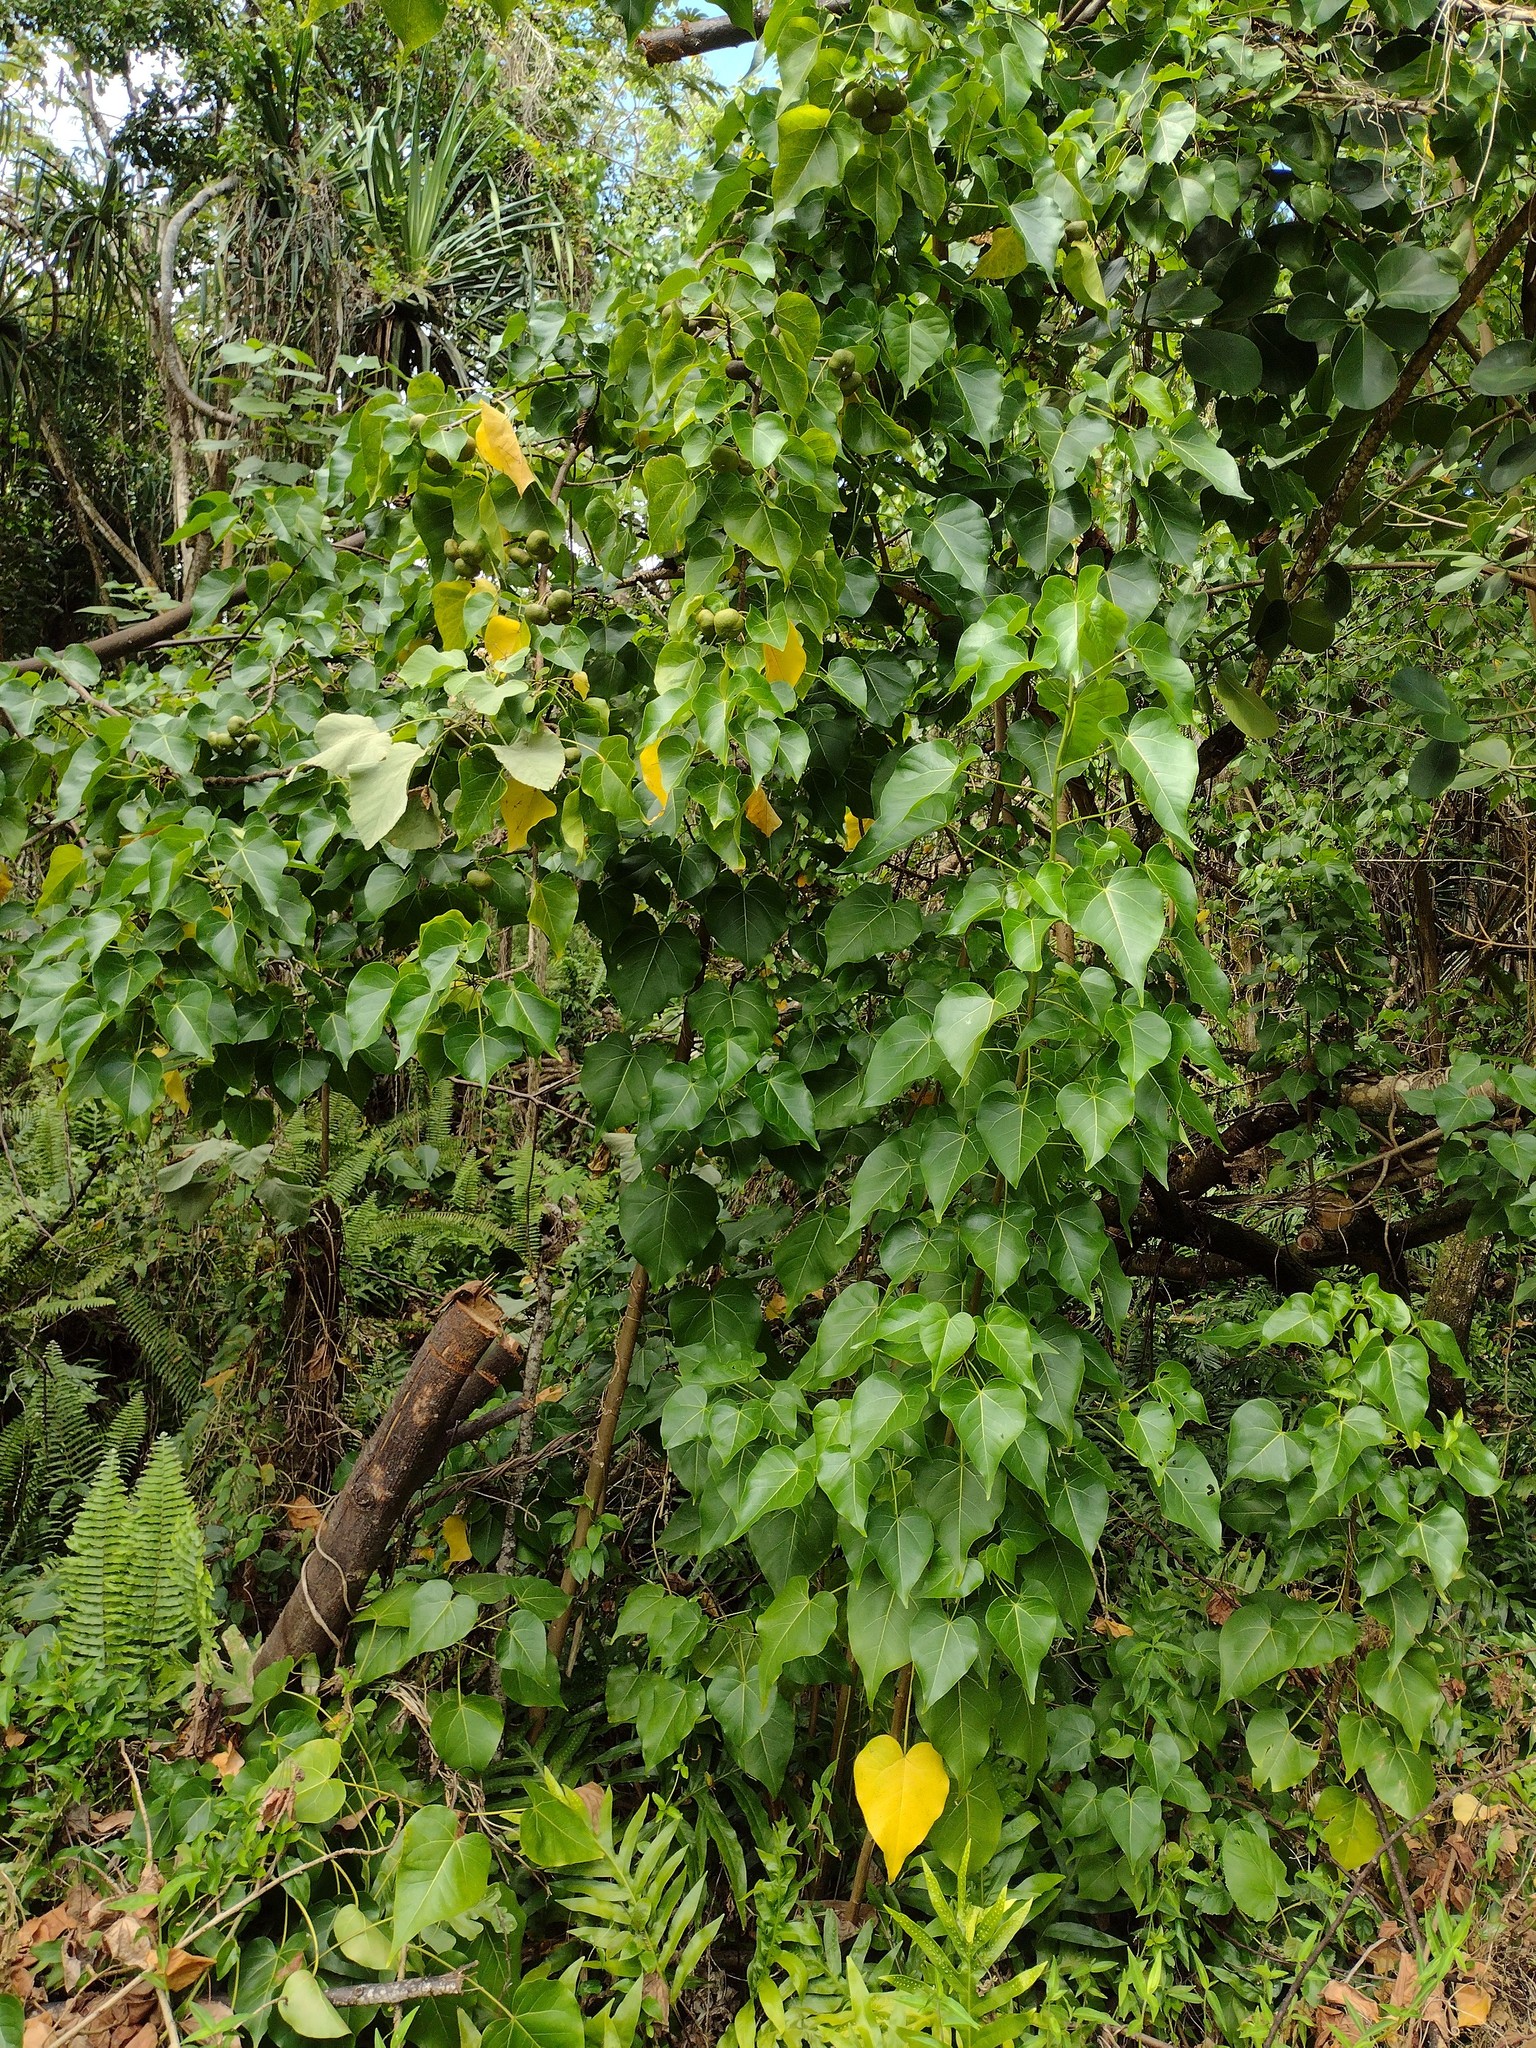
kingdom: Plantae
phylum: Tracheophyta
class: Magnoliopsida
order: Malvales
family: Malvaceae
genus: Thespesia
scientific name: Thespesia populnea
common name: Seaside mahoe
